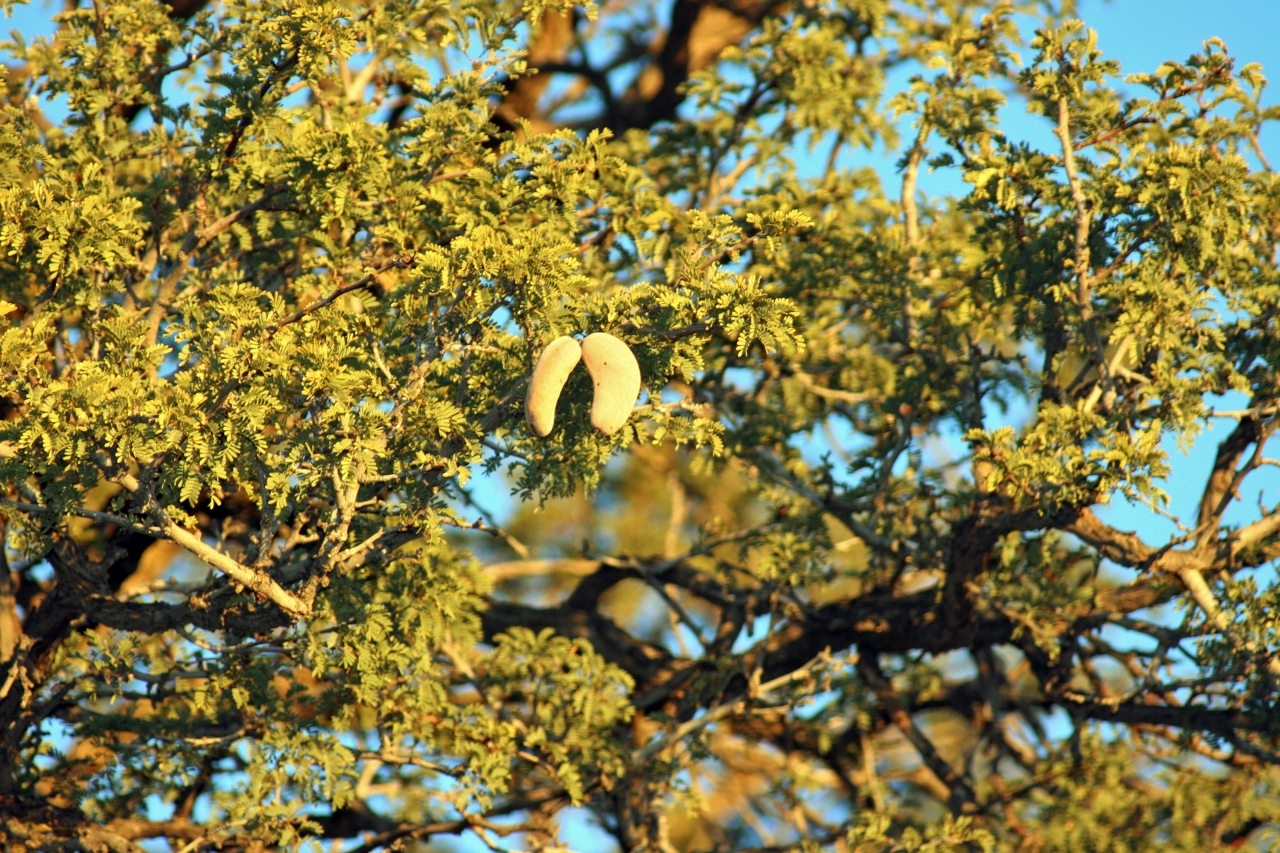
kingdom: Plantae
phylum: Tracheophyta
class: Magnoliopsida
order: Fabales
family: Fabaceae
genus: Vachellia
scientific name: Vachellia erioloba
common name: Camel thorn
